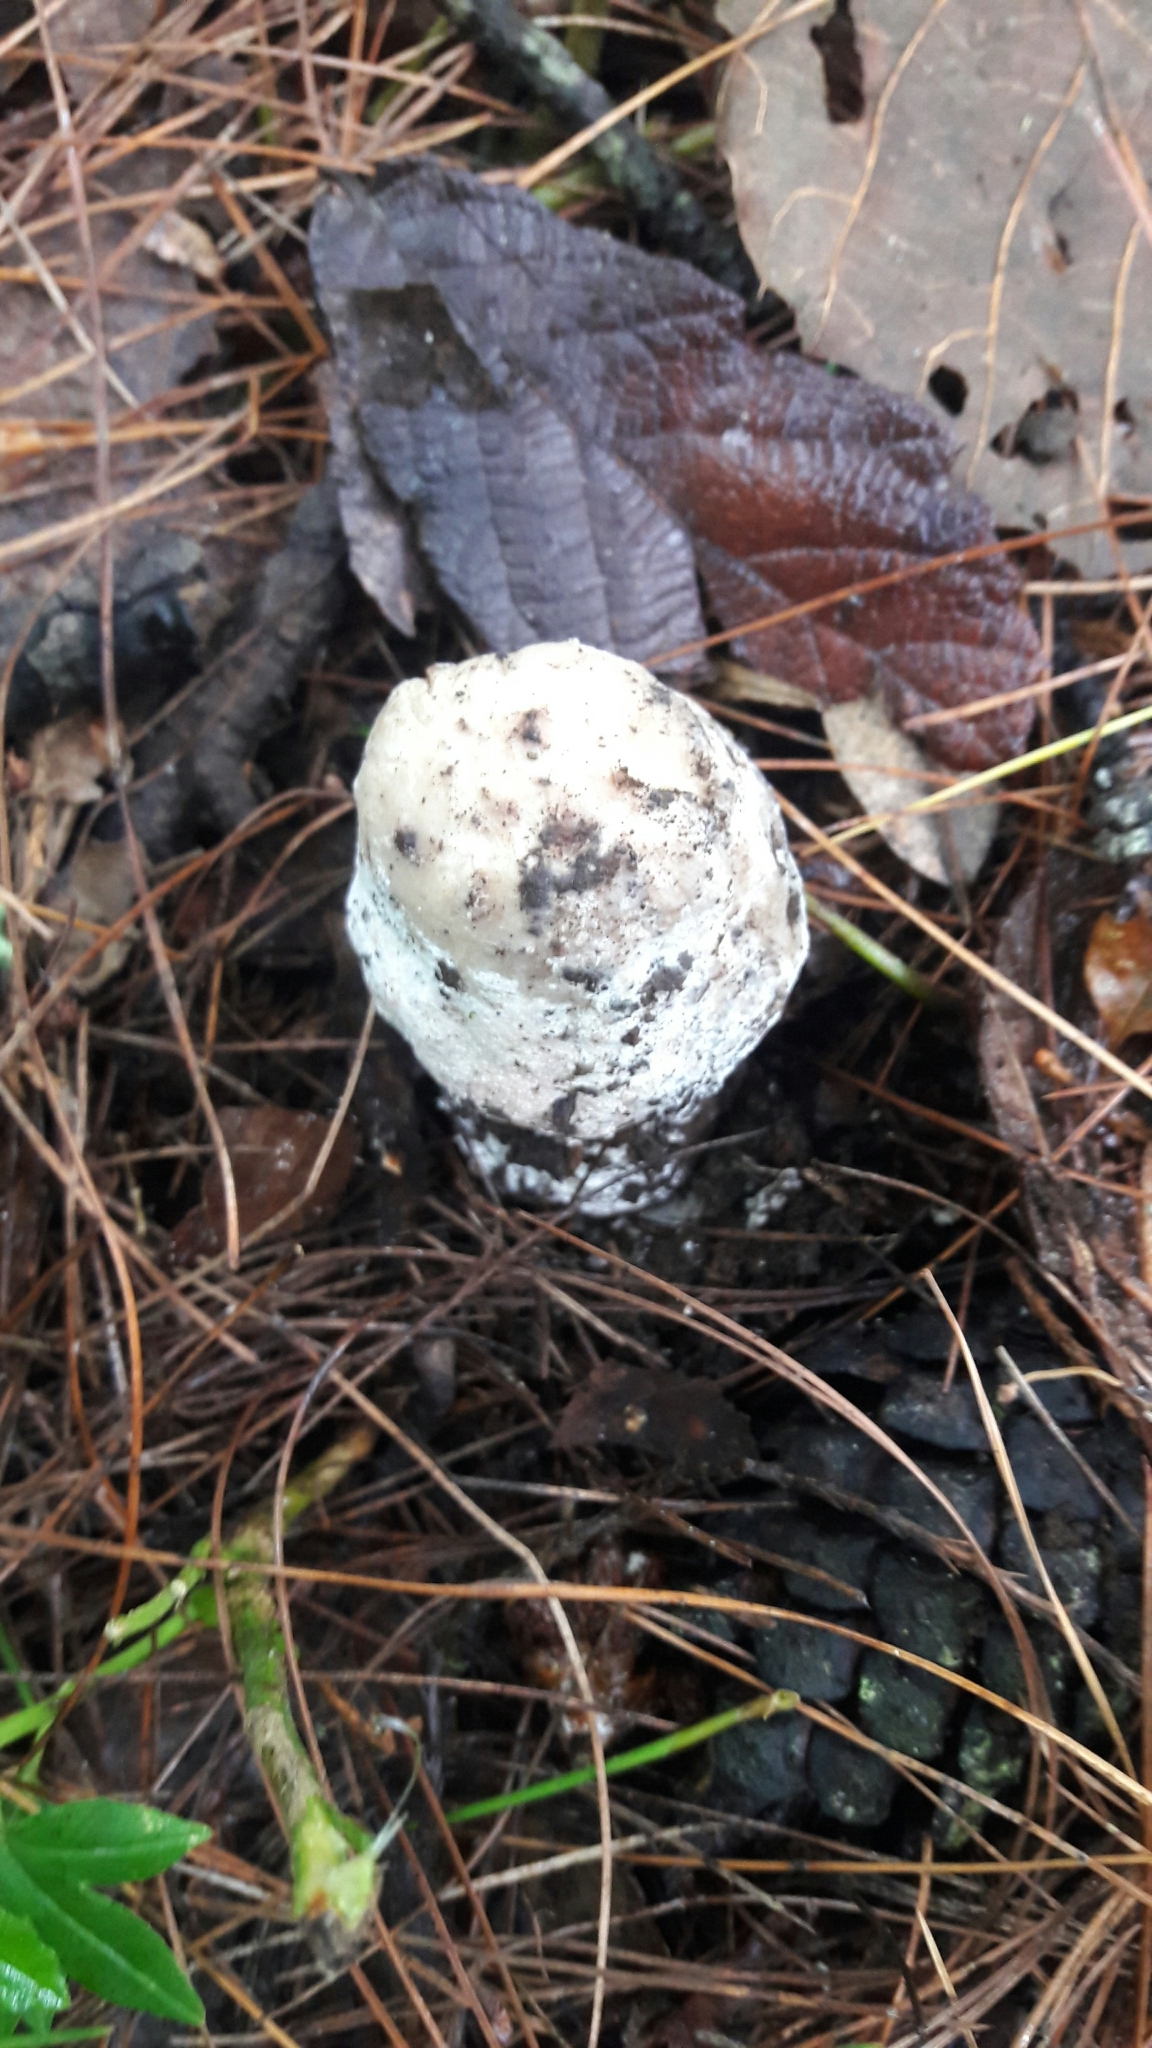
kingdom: Fungi
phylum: Ascomycota
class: Sordariomycetes
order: Hypocreales
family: Hypocreaceae
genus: Hypomyces
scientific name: Hypomyces hyalinus
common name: Amanita mold
